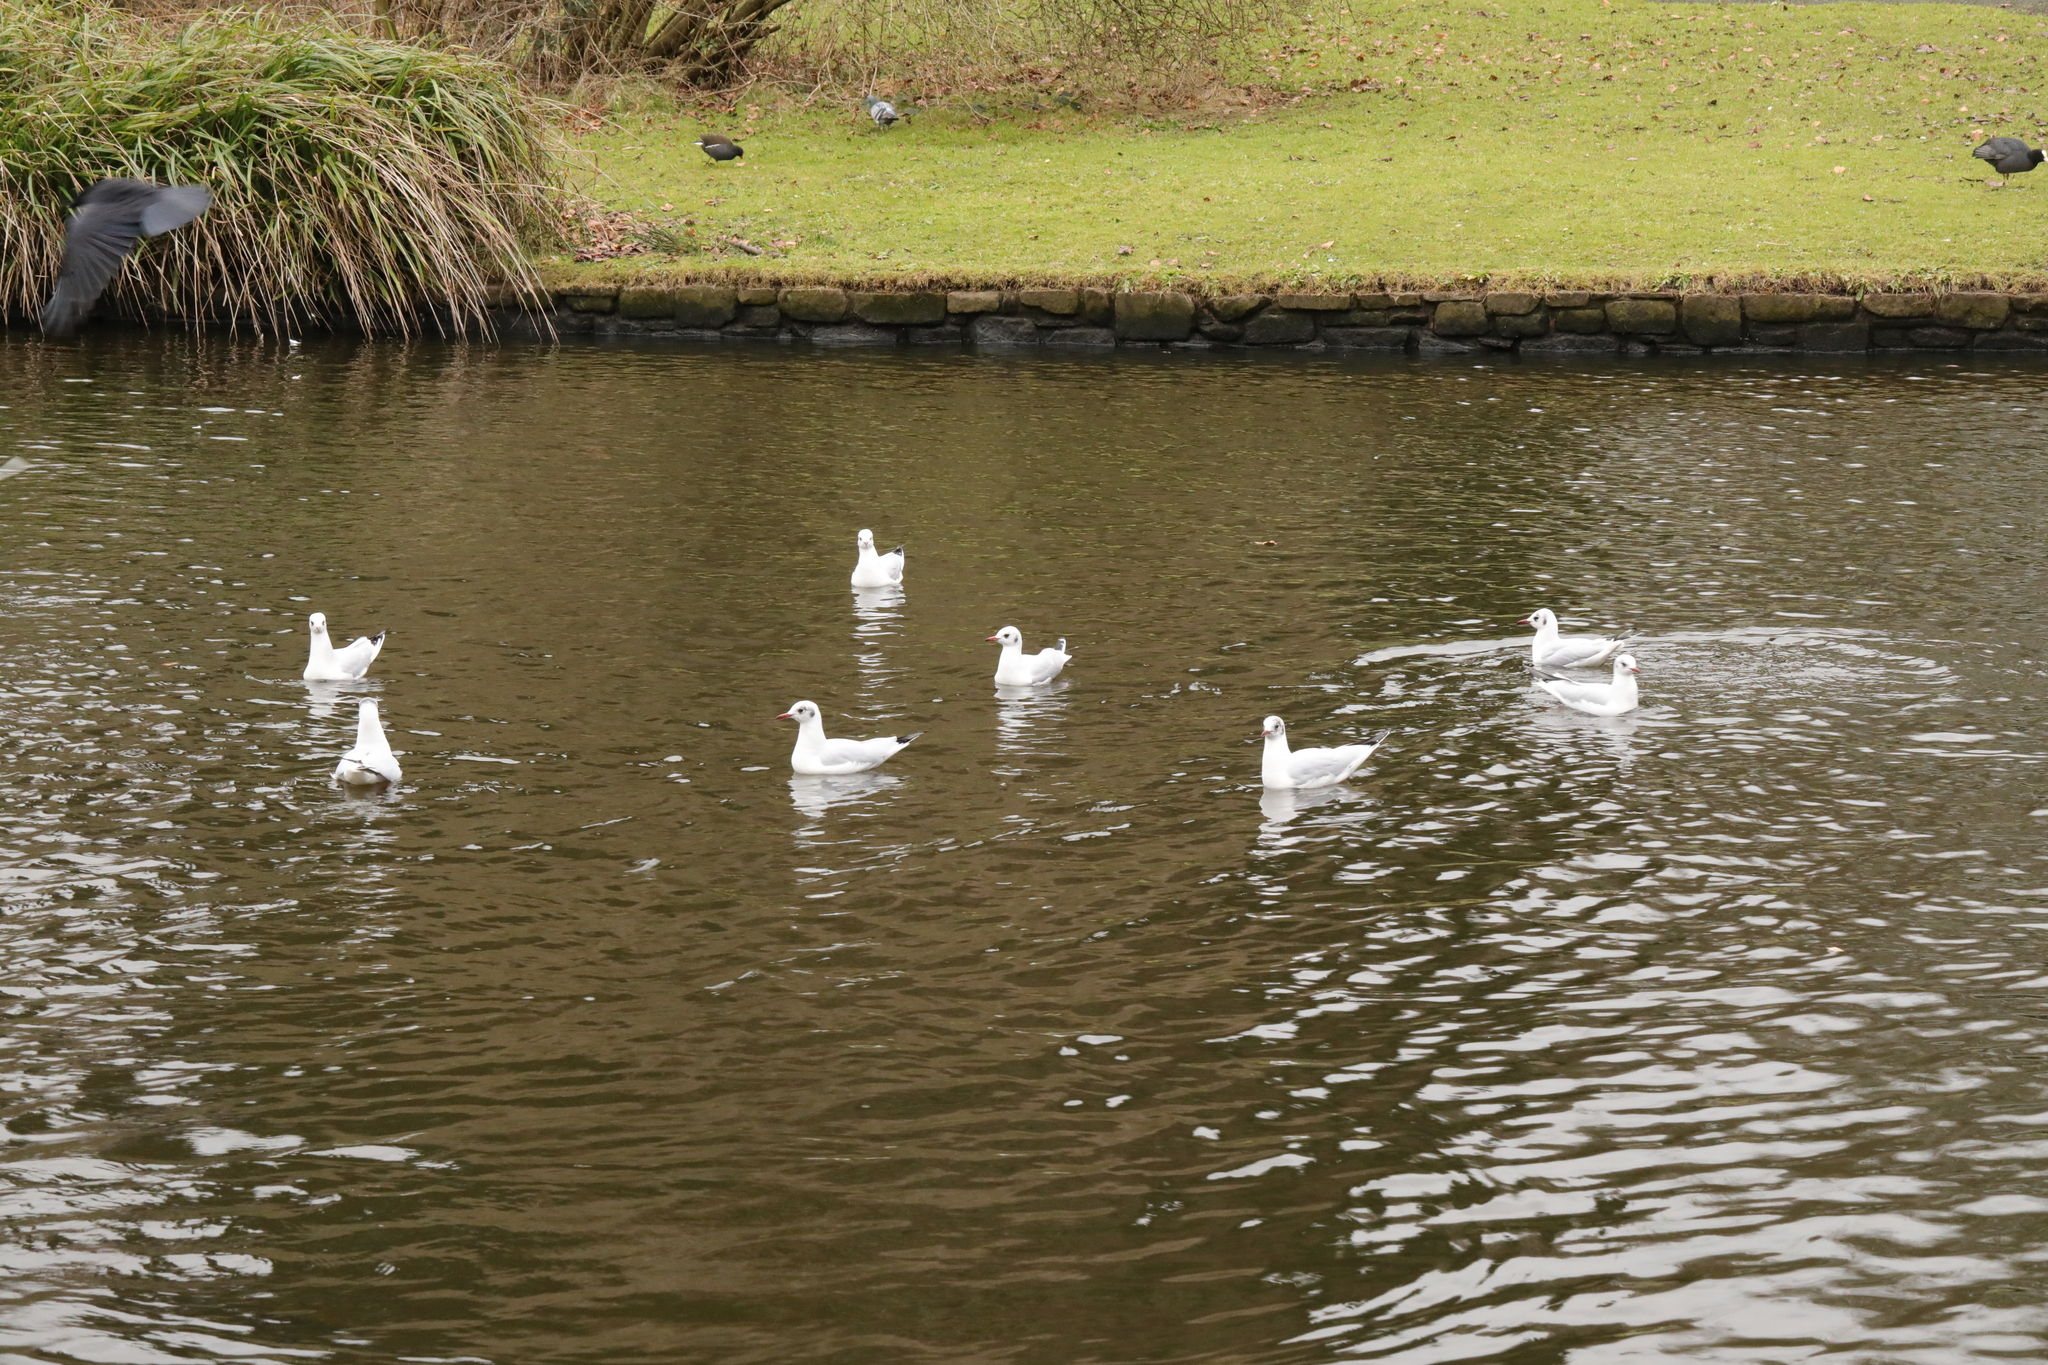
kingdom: Animalia
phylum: Chordata
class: Aves
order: Charadriiformes
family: Laridae
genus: Chroicocephalus
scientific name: Chroicocephalus ridibundus
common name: Black-headed gull
